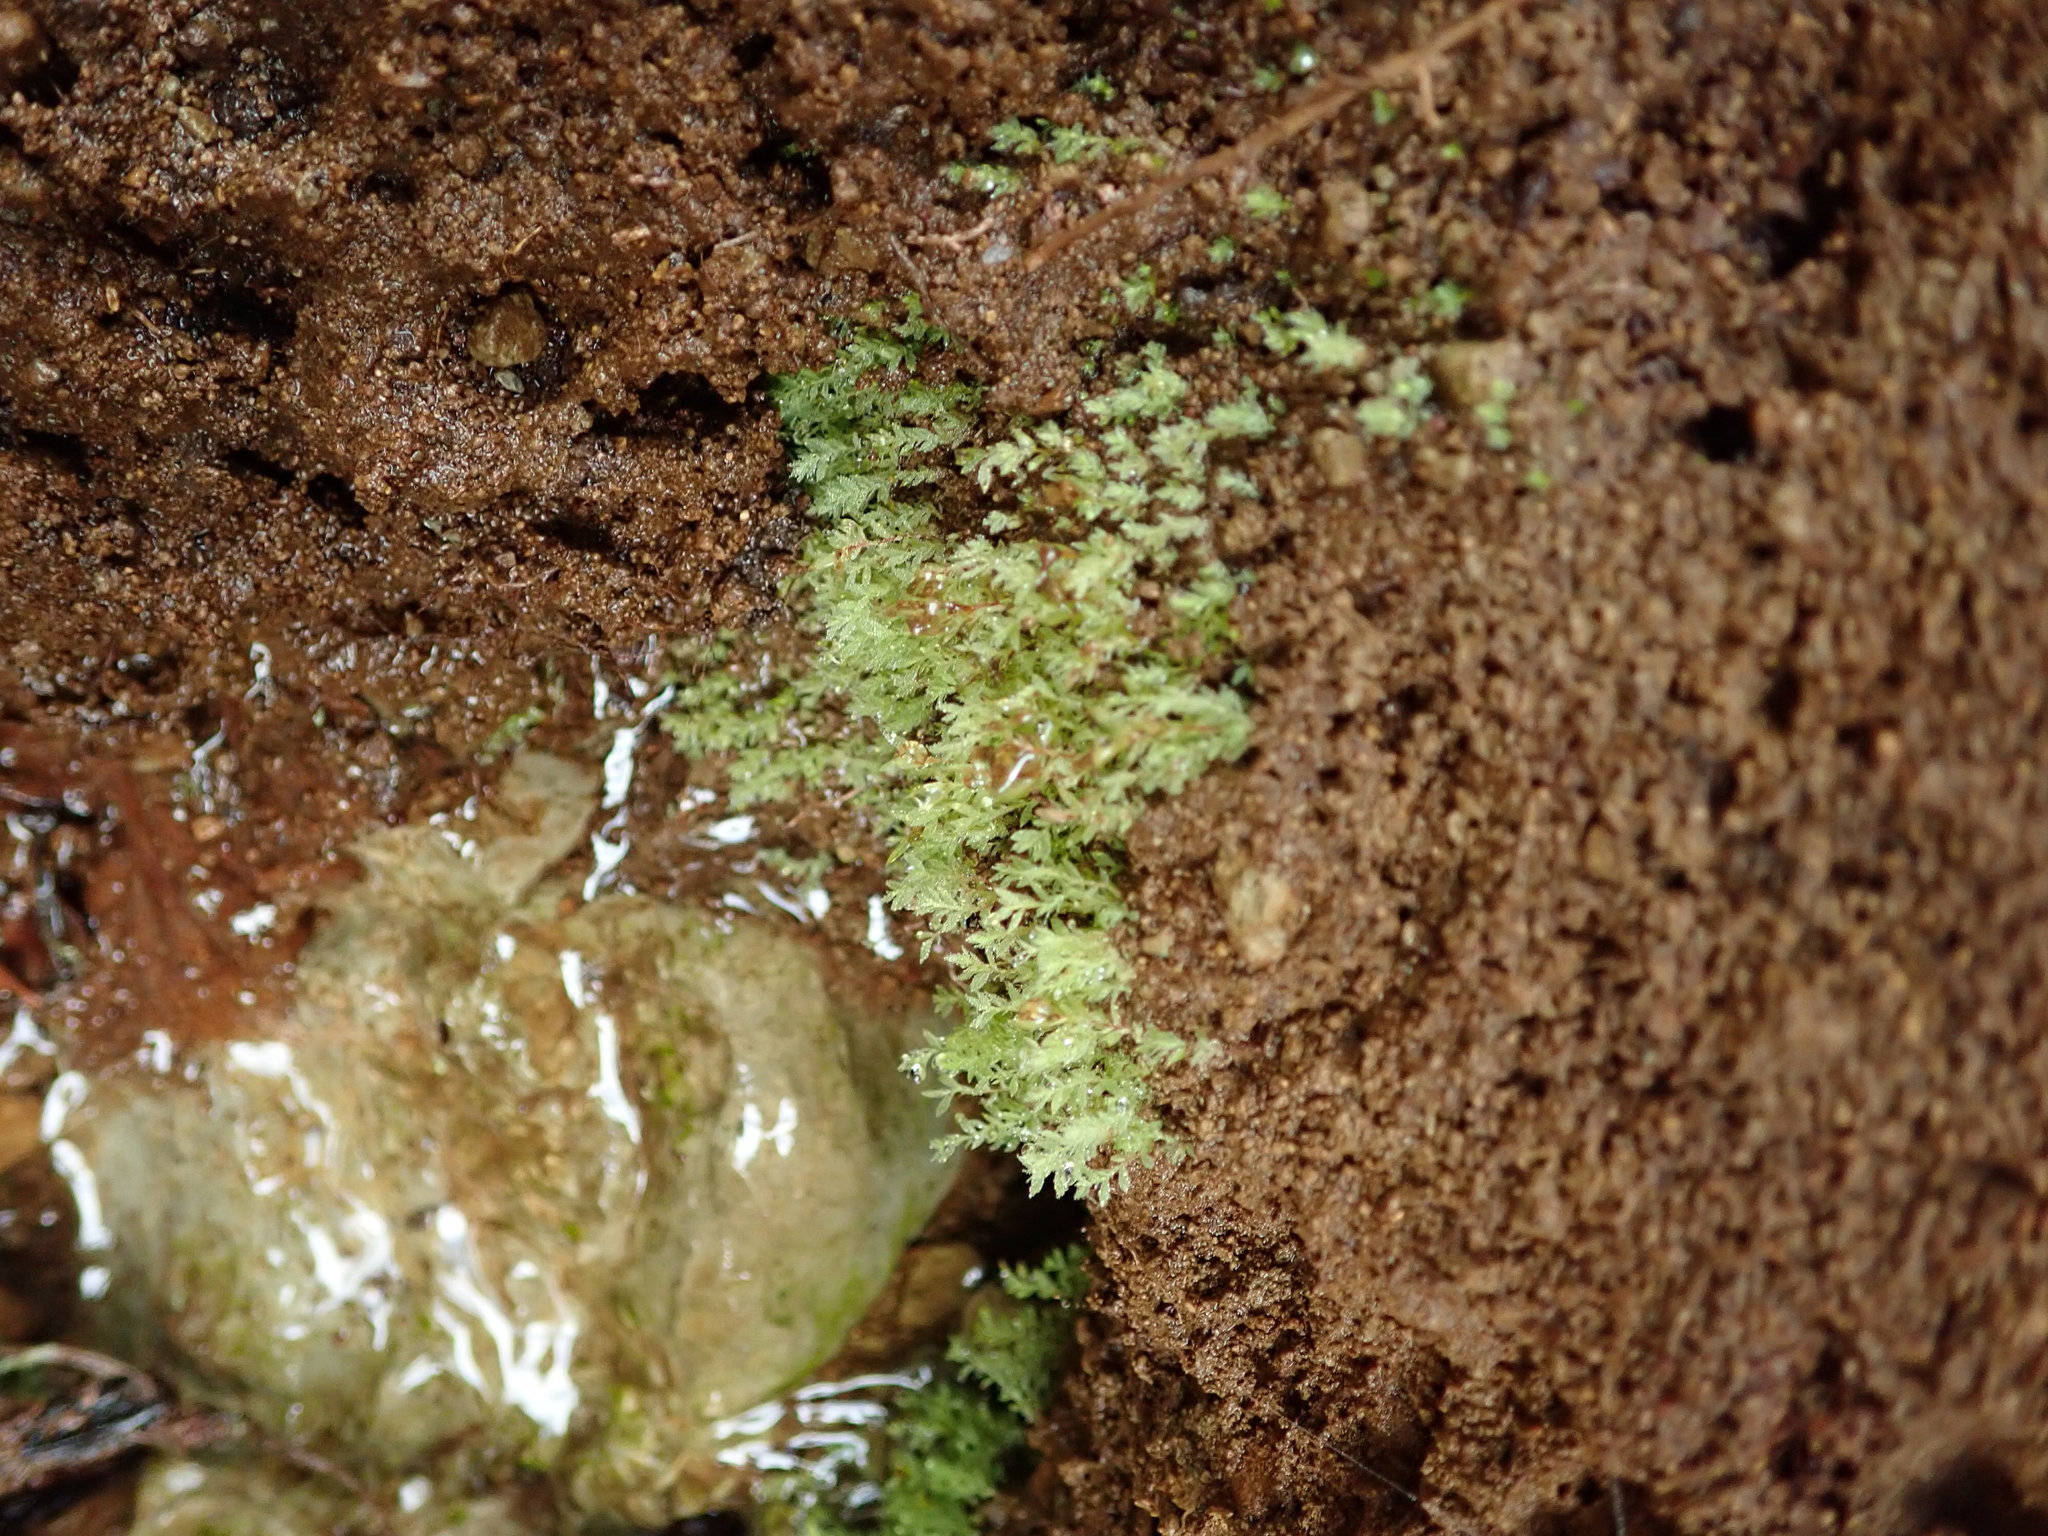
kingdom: Plantae
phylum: Bryophyta
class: Bryopsida
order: Bryales
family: Mniaceae
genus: Pohlia
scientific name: Pohlia cruda
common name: Opal nodding moss
